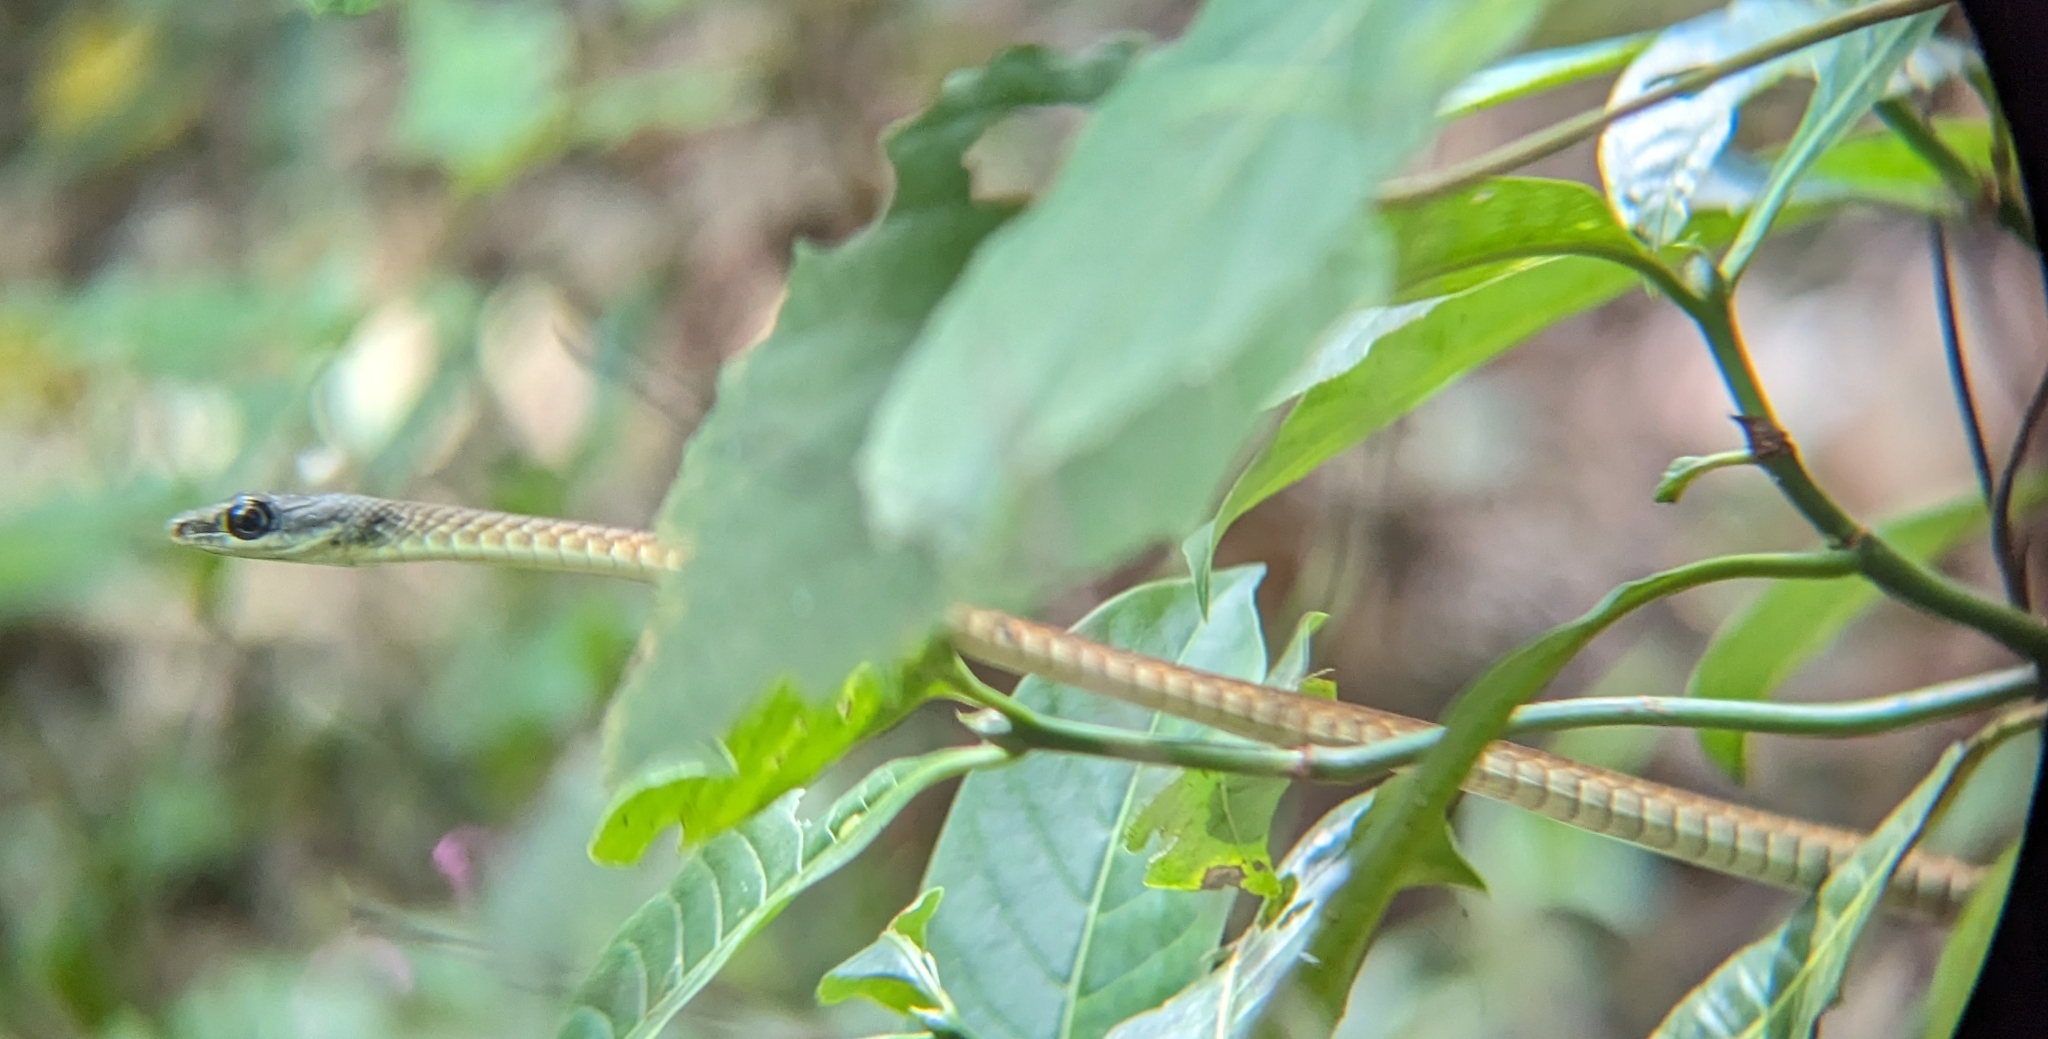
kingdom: Animalia
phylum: Chordata
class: Squamata
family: Colubridae
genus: Dendrelaphis
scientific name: Dendrelaphis grandoculis
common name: Southern bronzeback
